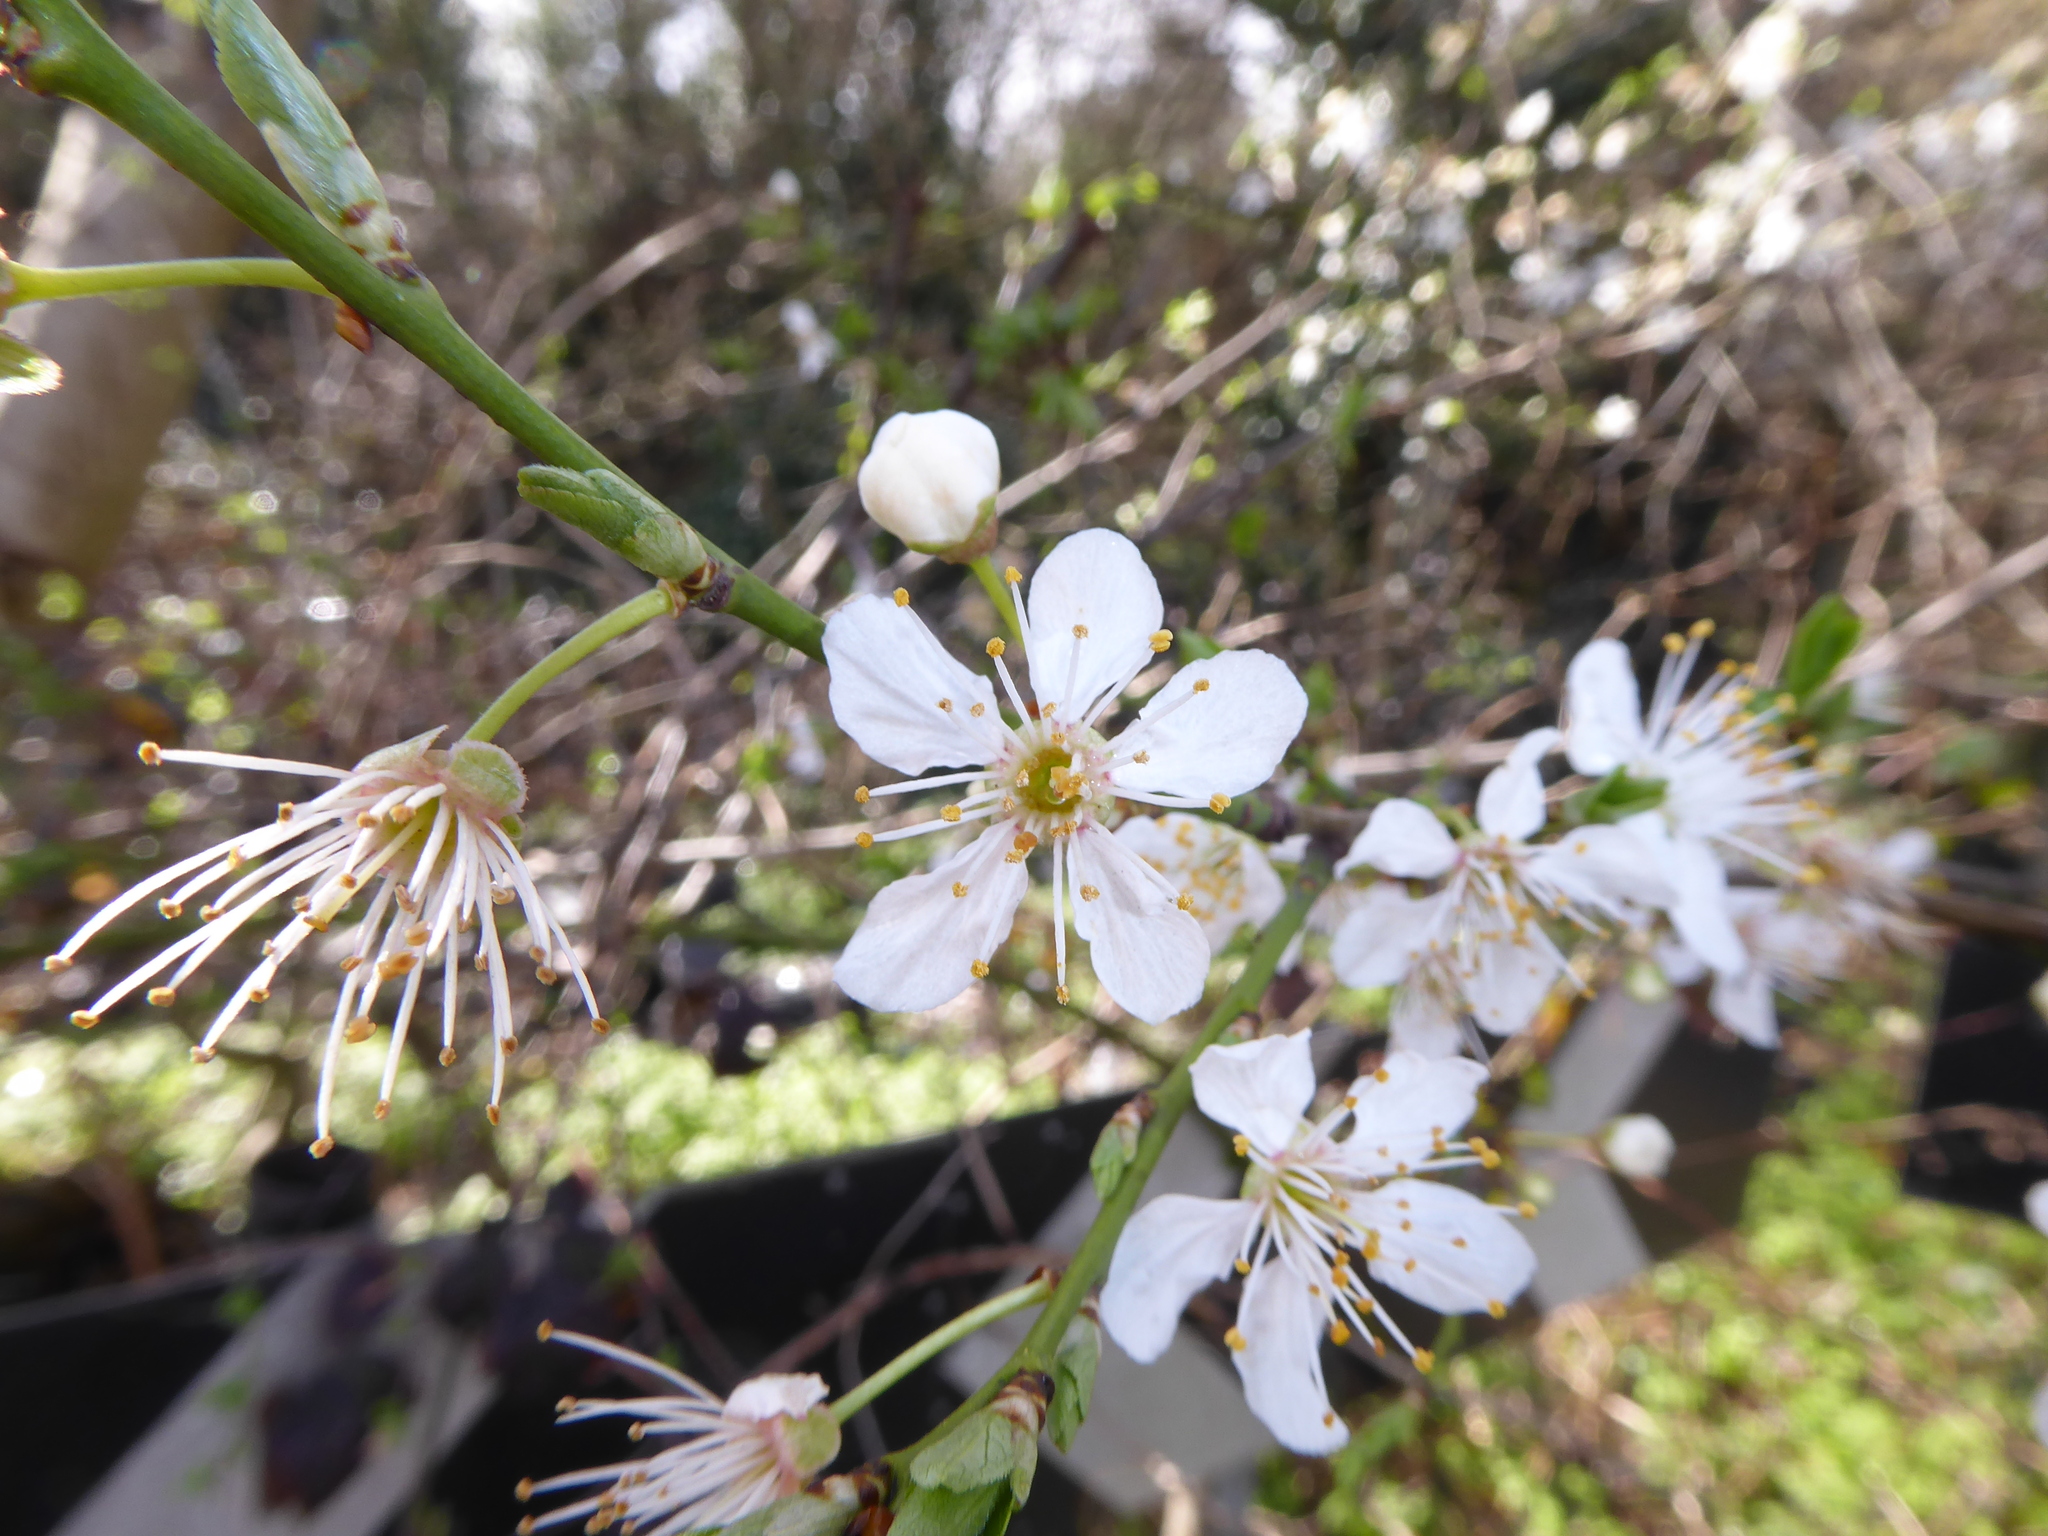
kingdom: Plantae
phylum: Tracheophyta
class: Magnoliopsida
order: Rosales
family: Rosaceae
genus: Prunus
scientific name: Prunus cerasifera
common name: Cherry plum
